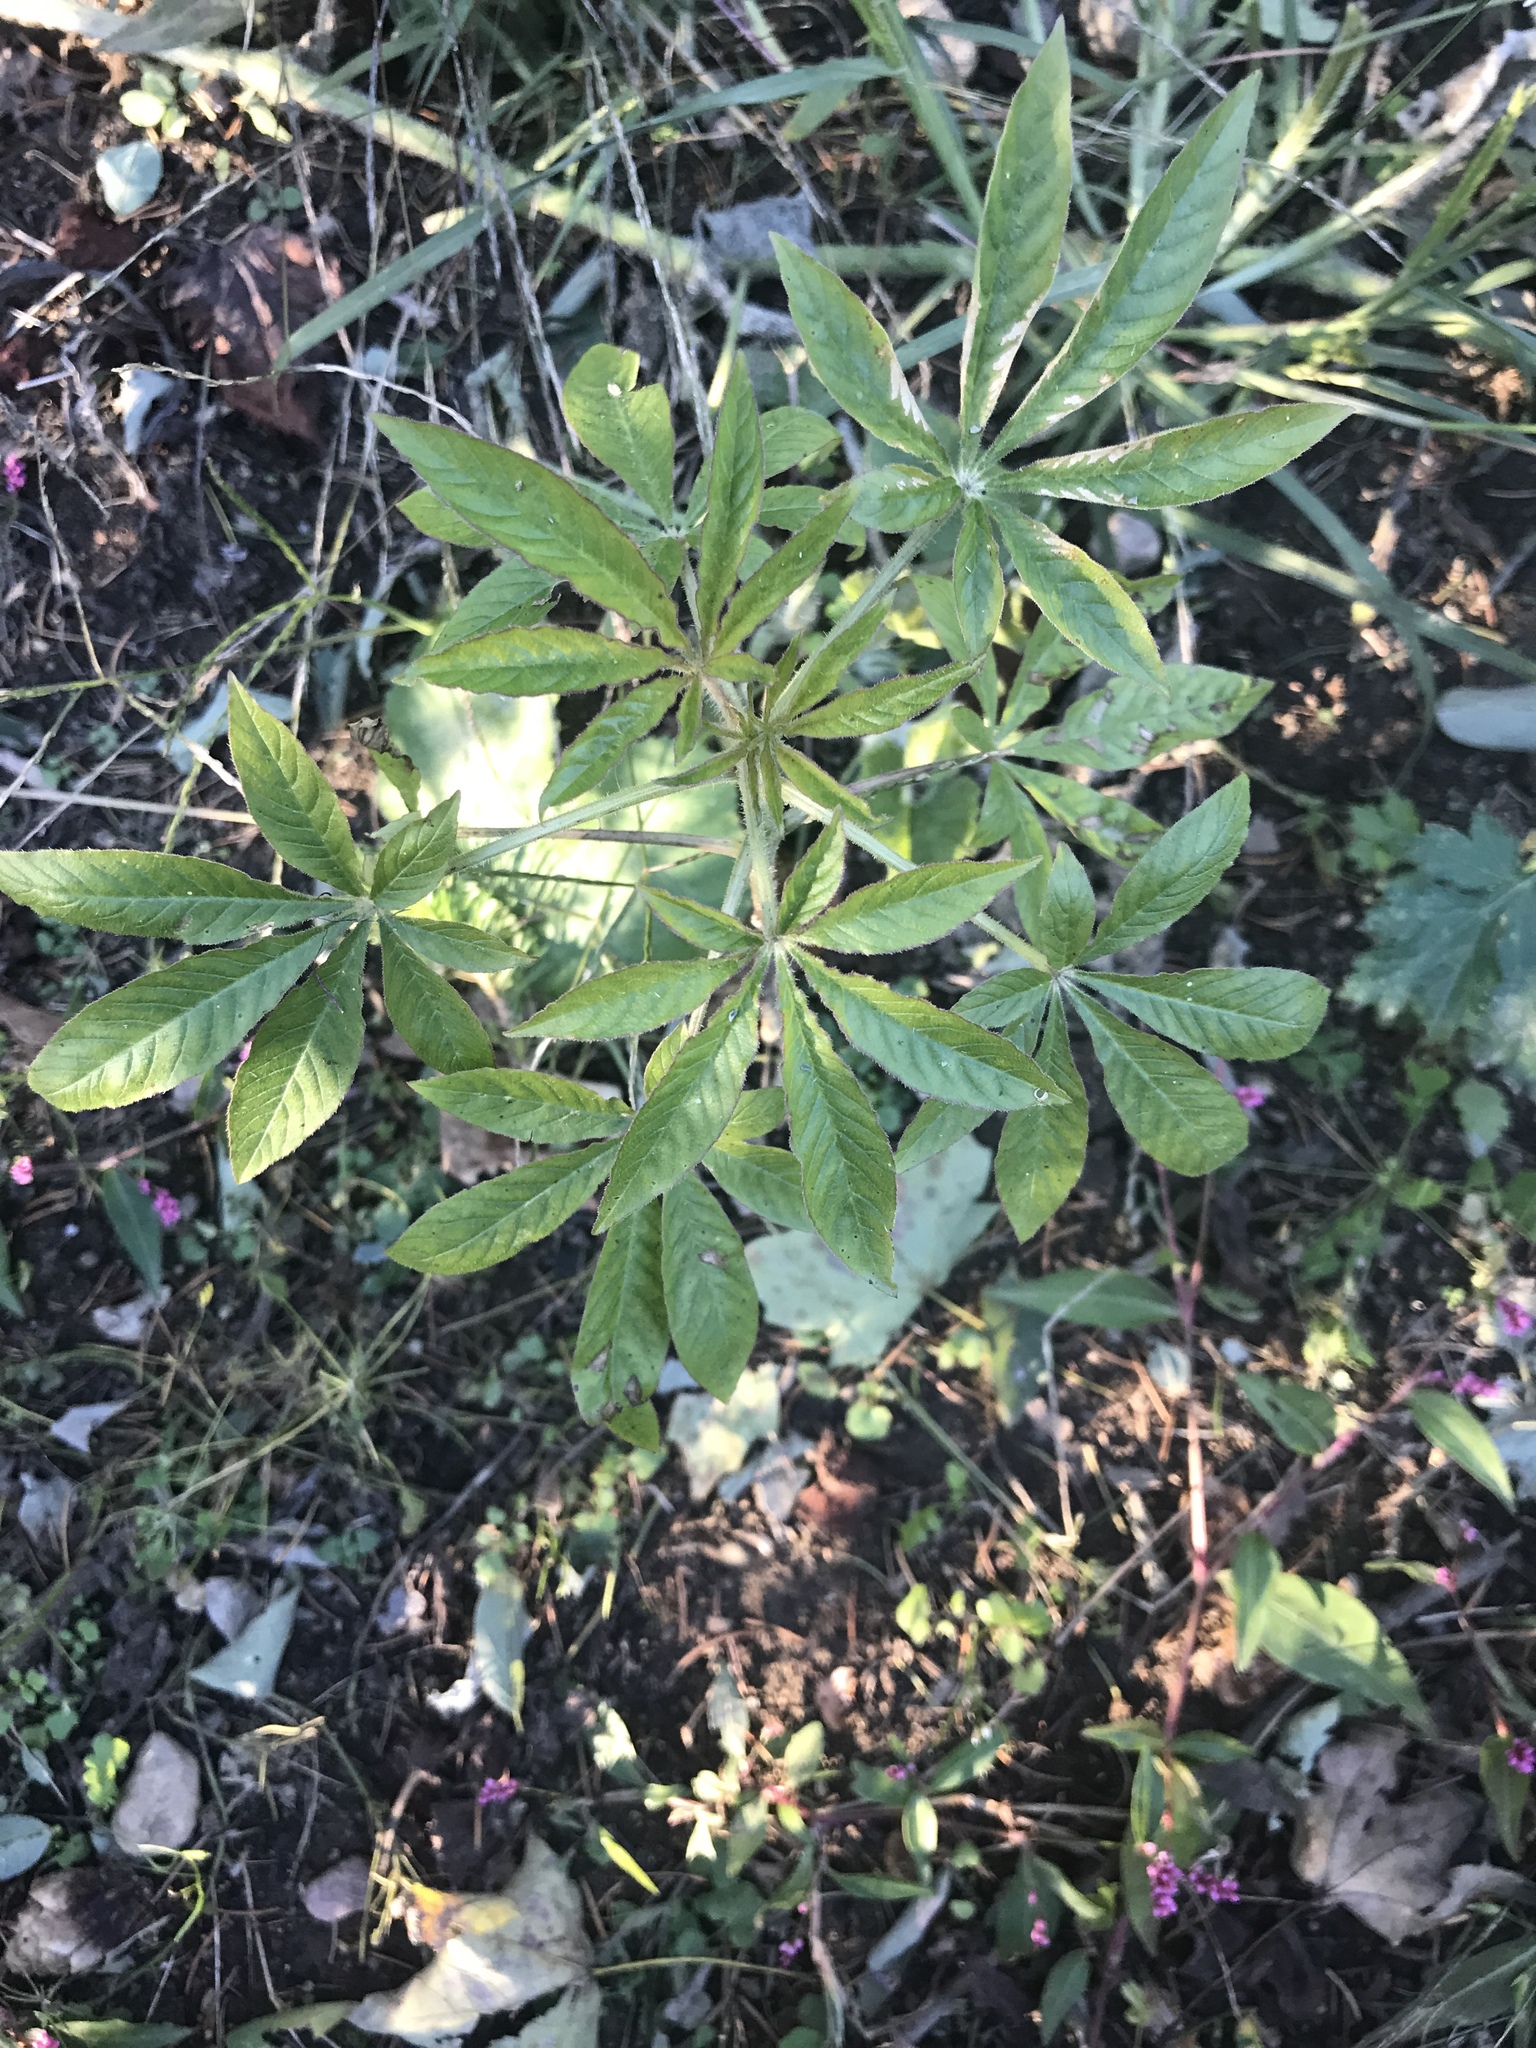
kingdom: Plantae
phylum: Tracheophyta
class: Magnoliopsida
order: Brassicales
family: Cleomaceae
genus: Tarenaya
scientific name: Tarenaya houtteana
